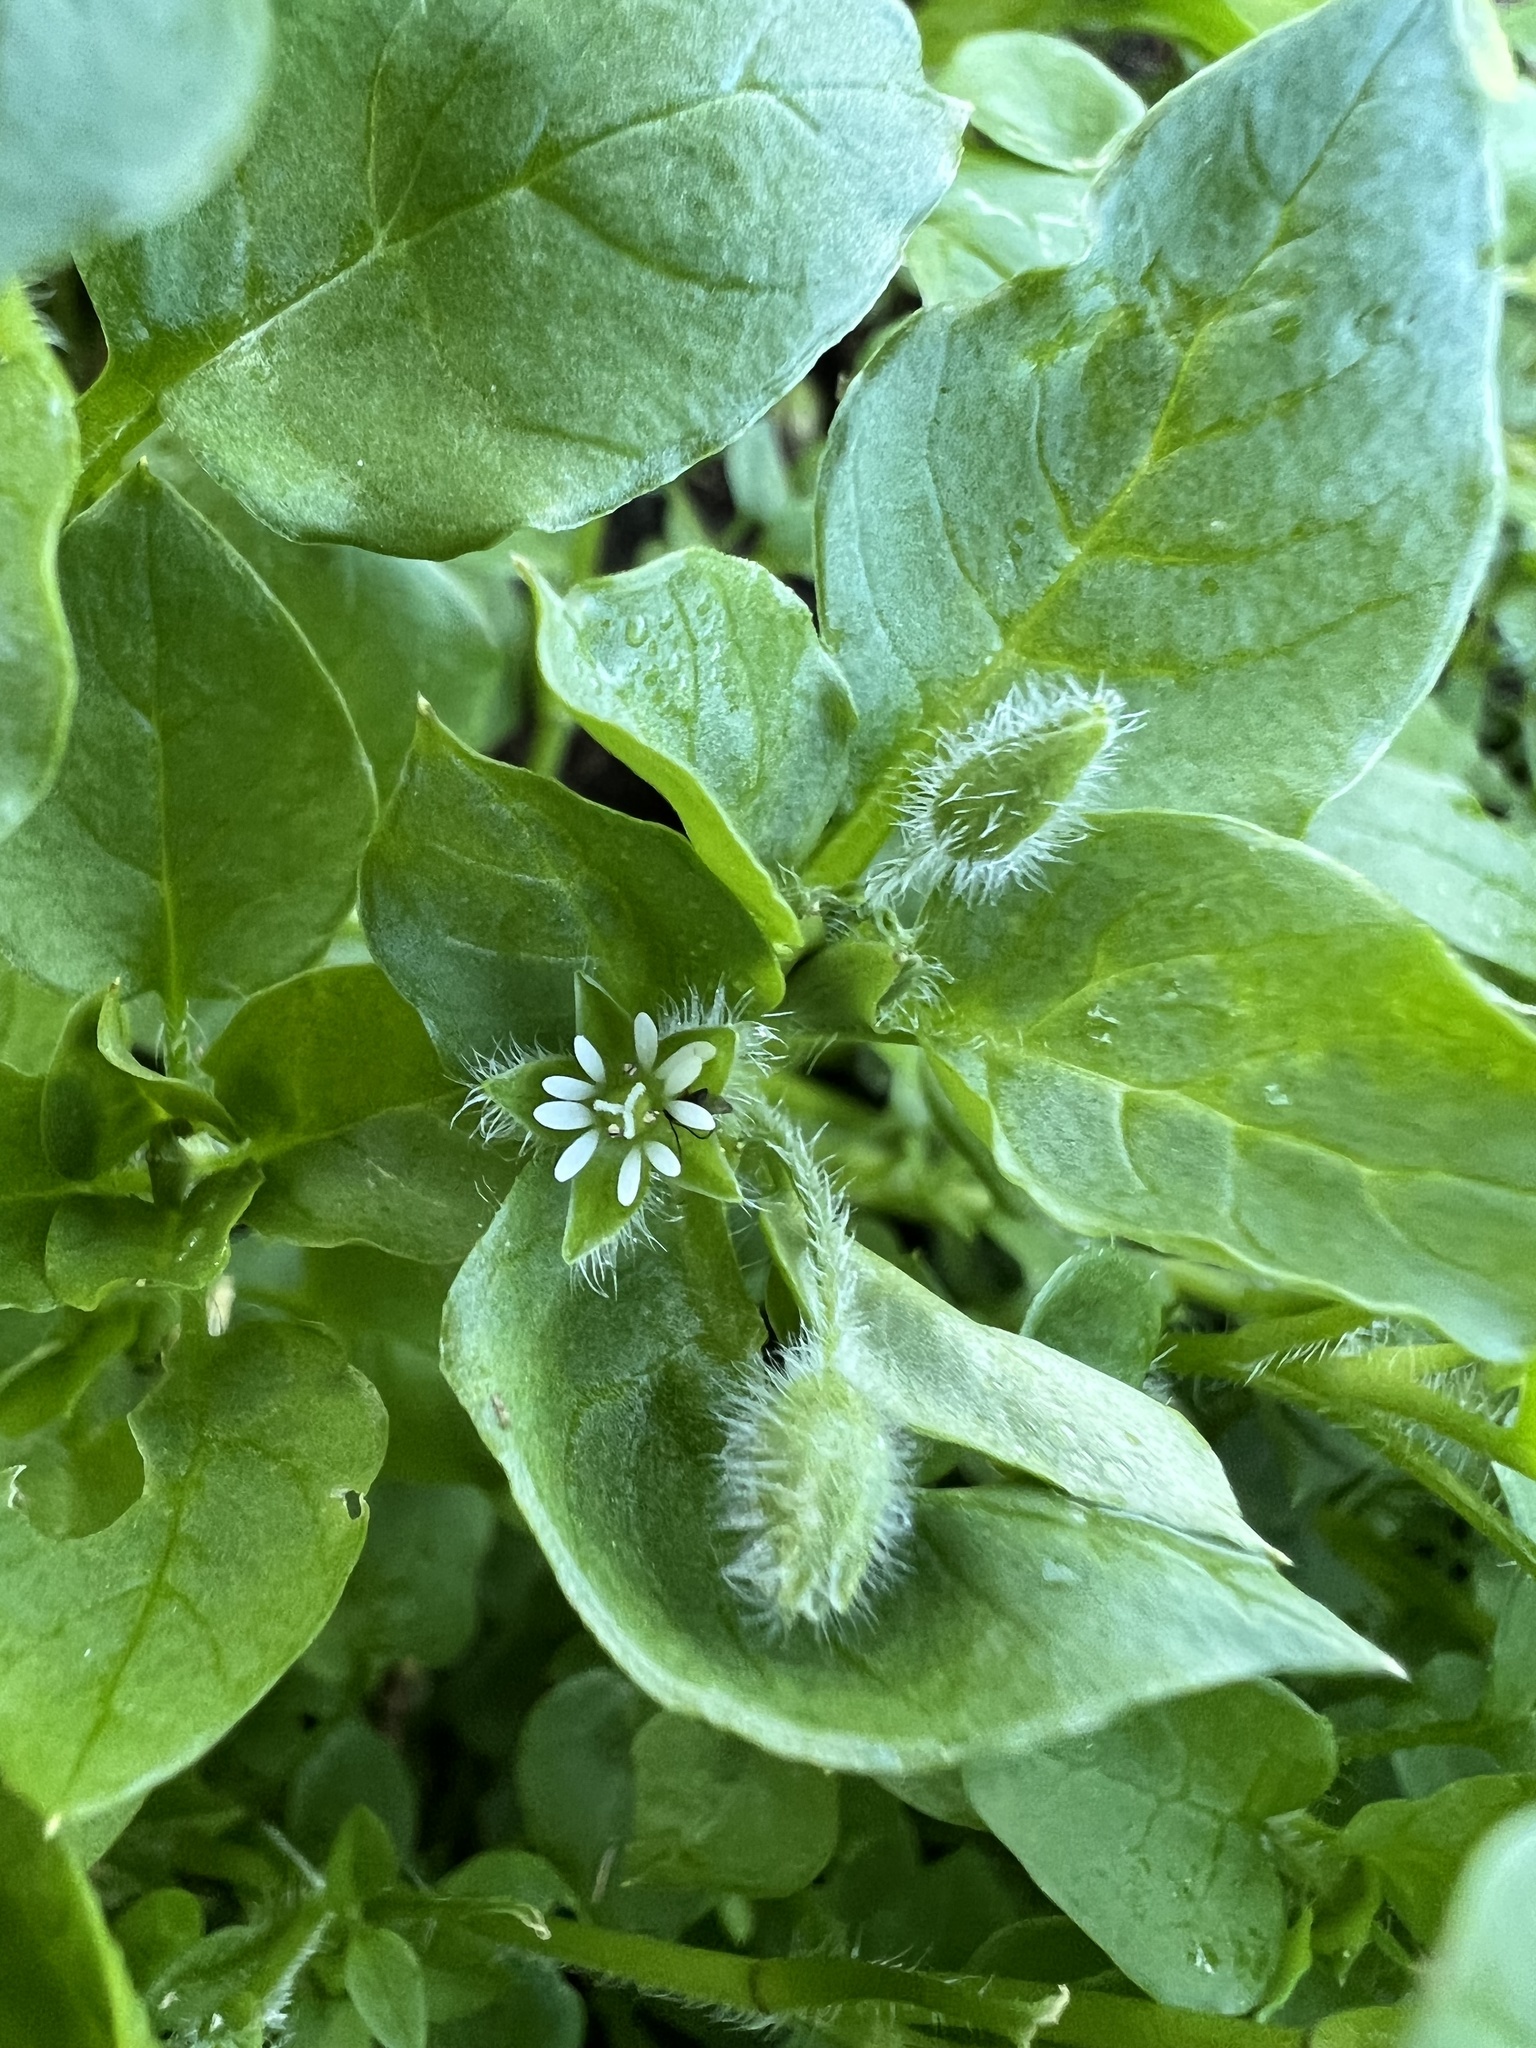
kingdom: Plantae
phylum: Tracheophyta
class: Magnoliopsida
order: Caryophyllales
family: Caryophyllaceae
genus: Stellaria
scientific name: Stellaria media
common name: Common chickweed
